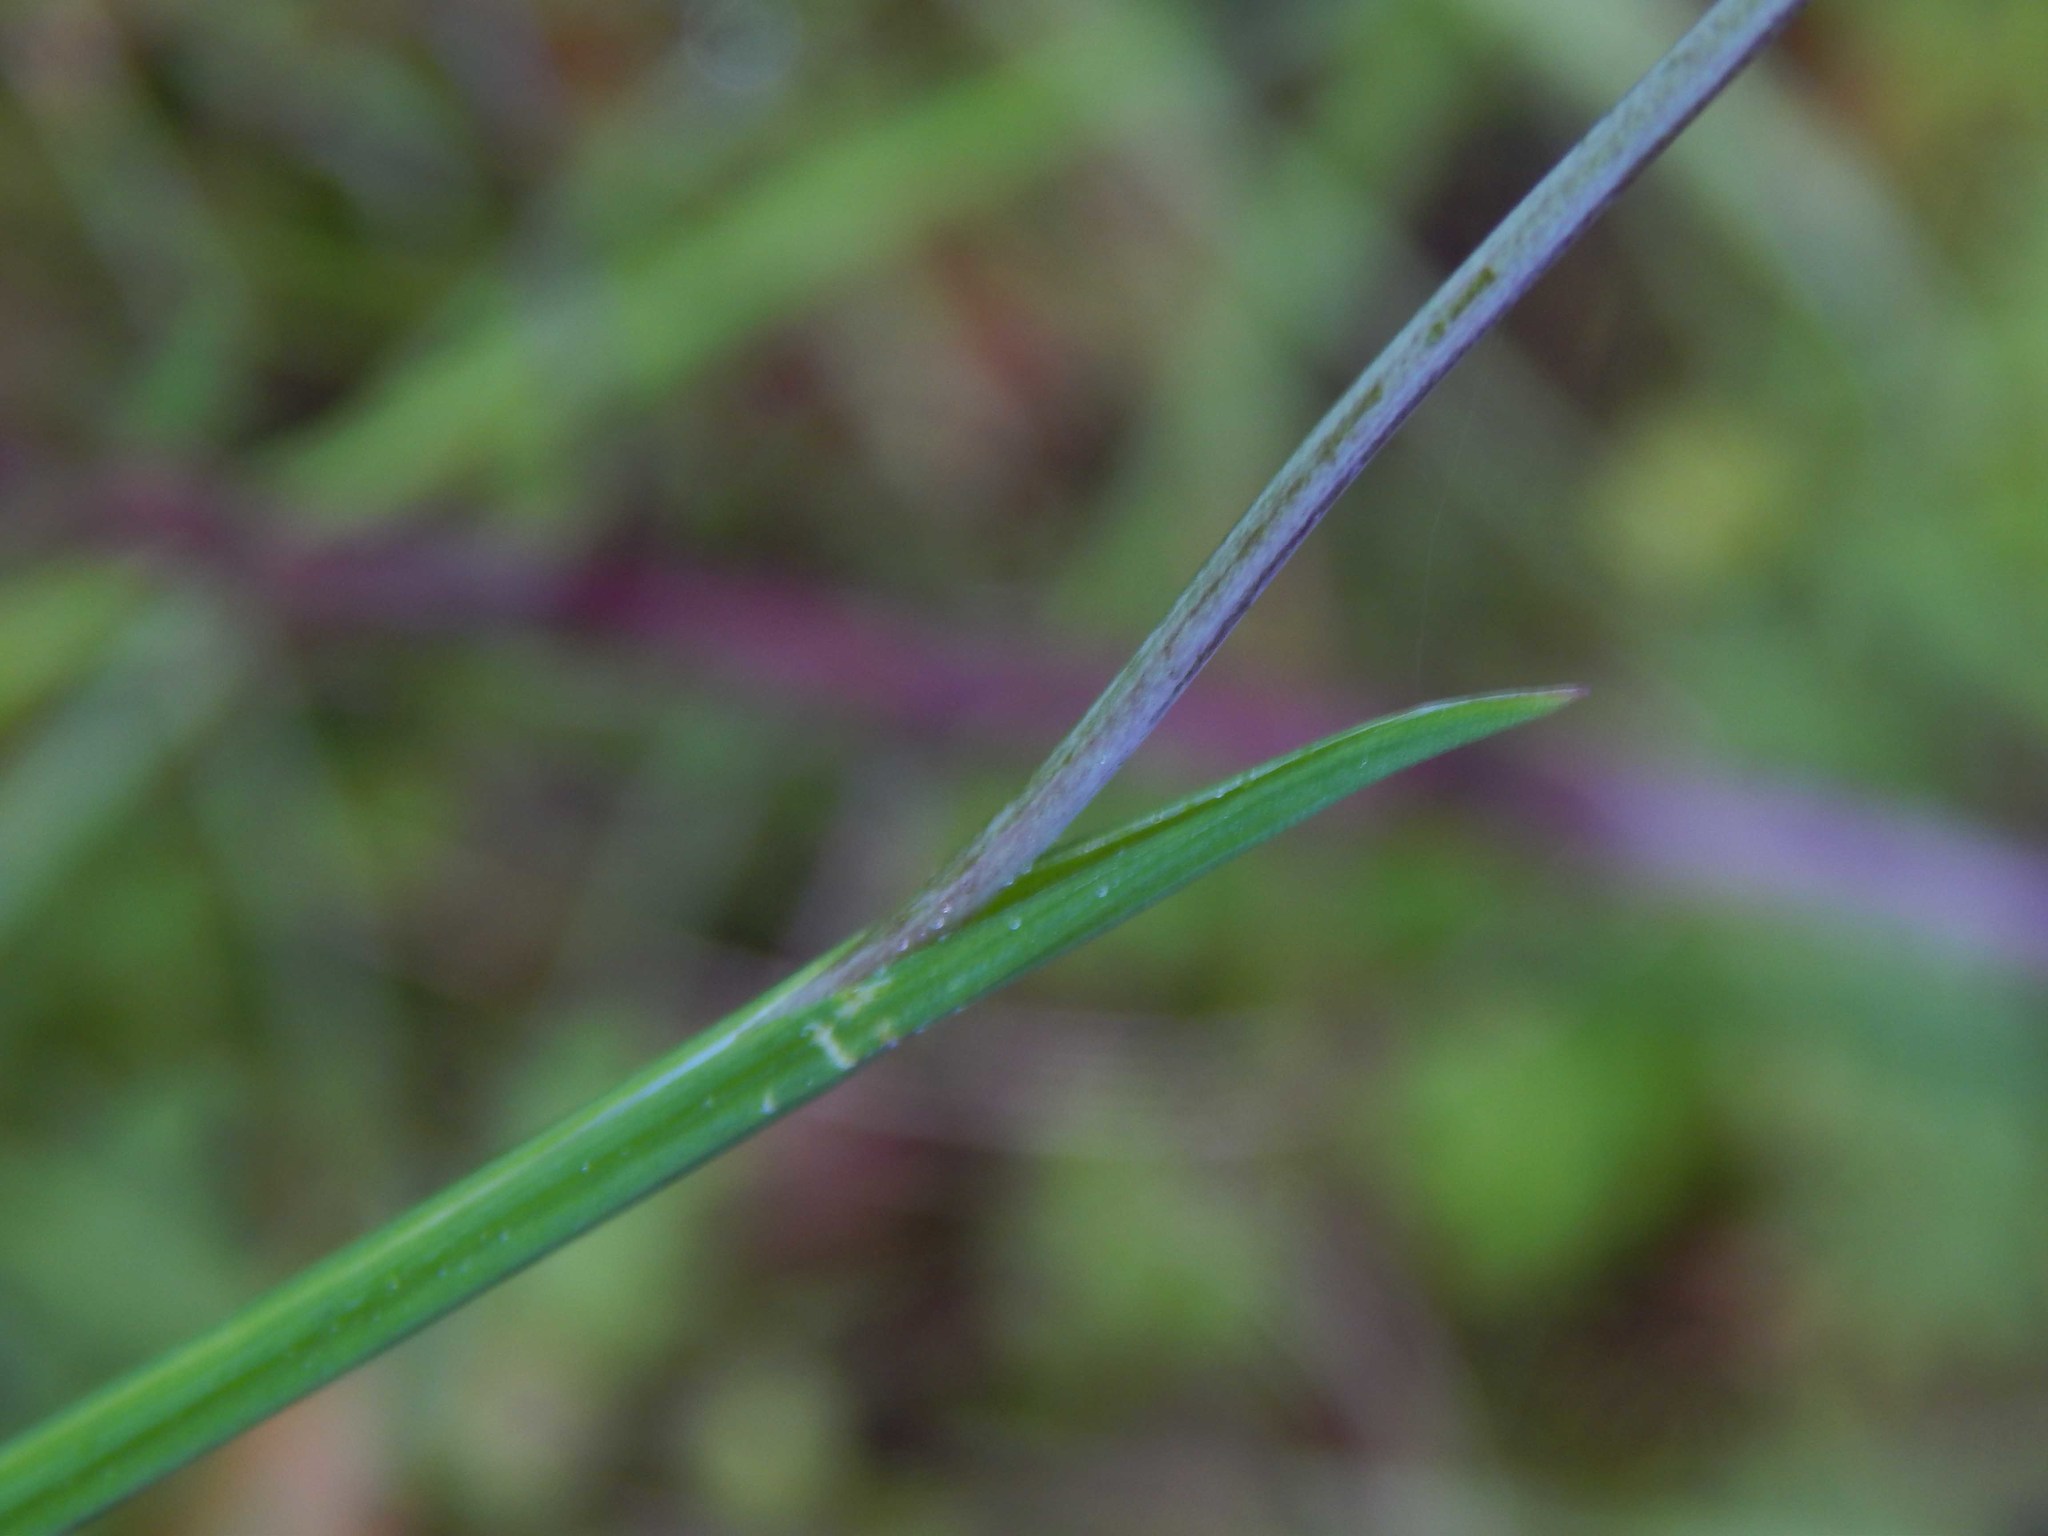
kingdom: Plantae
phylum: Tracheophyta
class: Liliopsida
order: Asparagales
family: Iridaceae
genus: Hesperantha
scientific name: Hesperantha radiata
